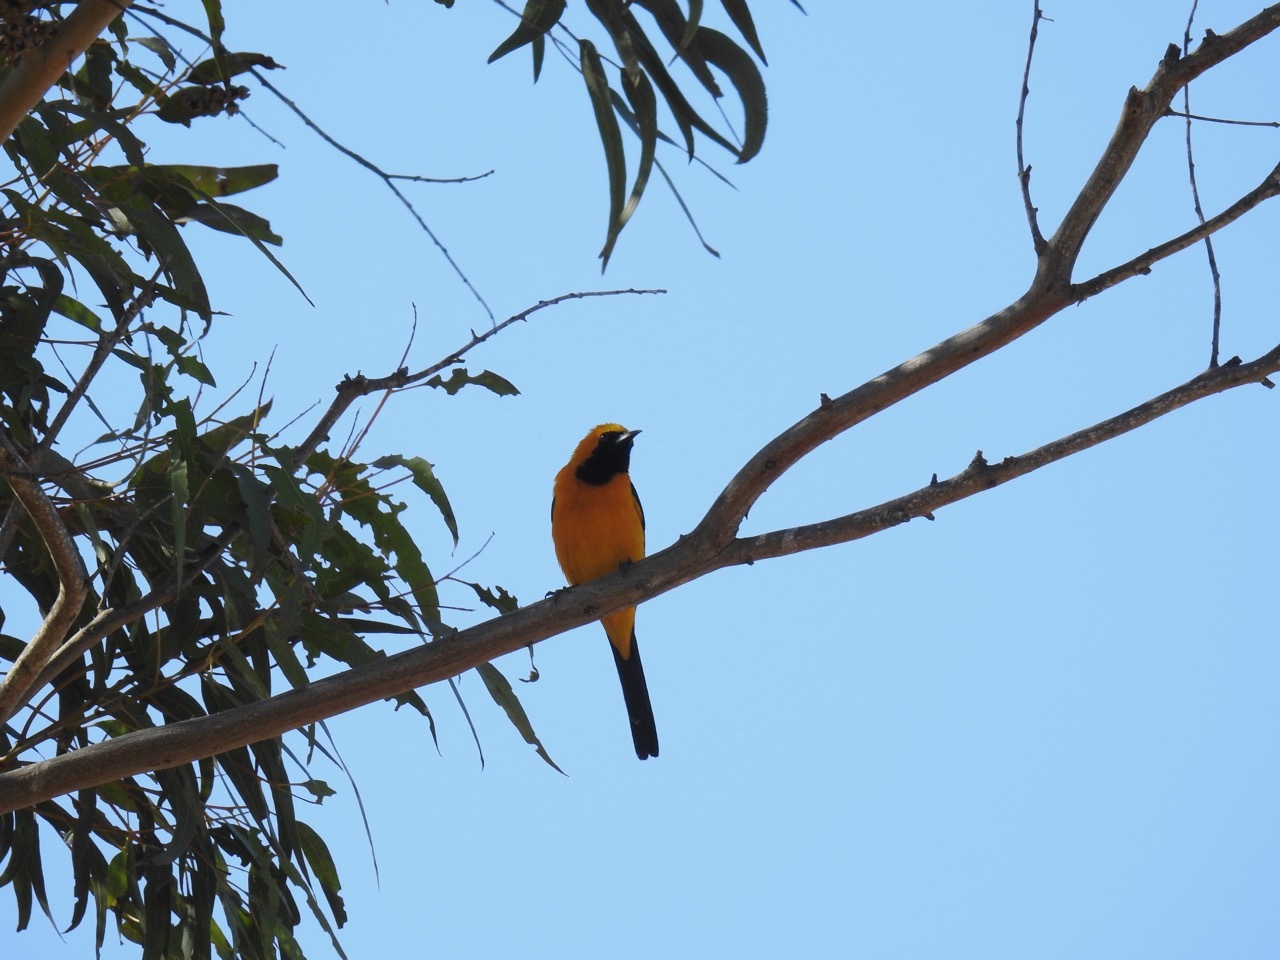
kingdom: Animalia
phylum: Chordata
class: Aves
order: Passeriformes
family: Icteridae
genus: Icterus
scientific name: Icterus cucullatus
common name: Hooded oriole
